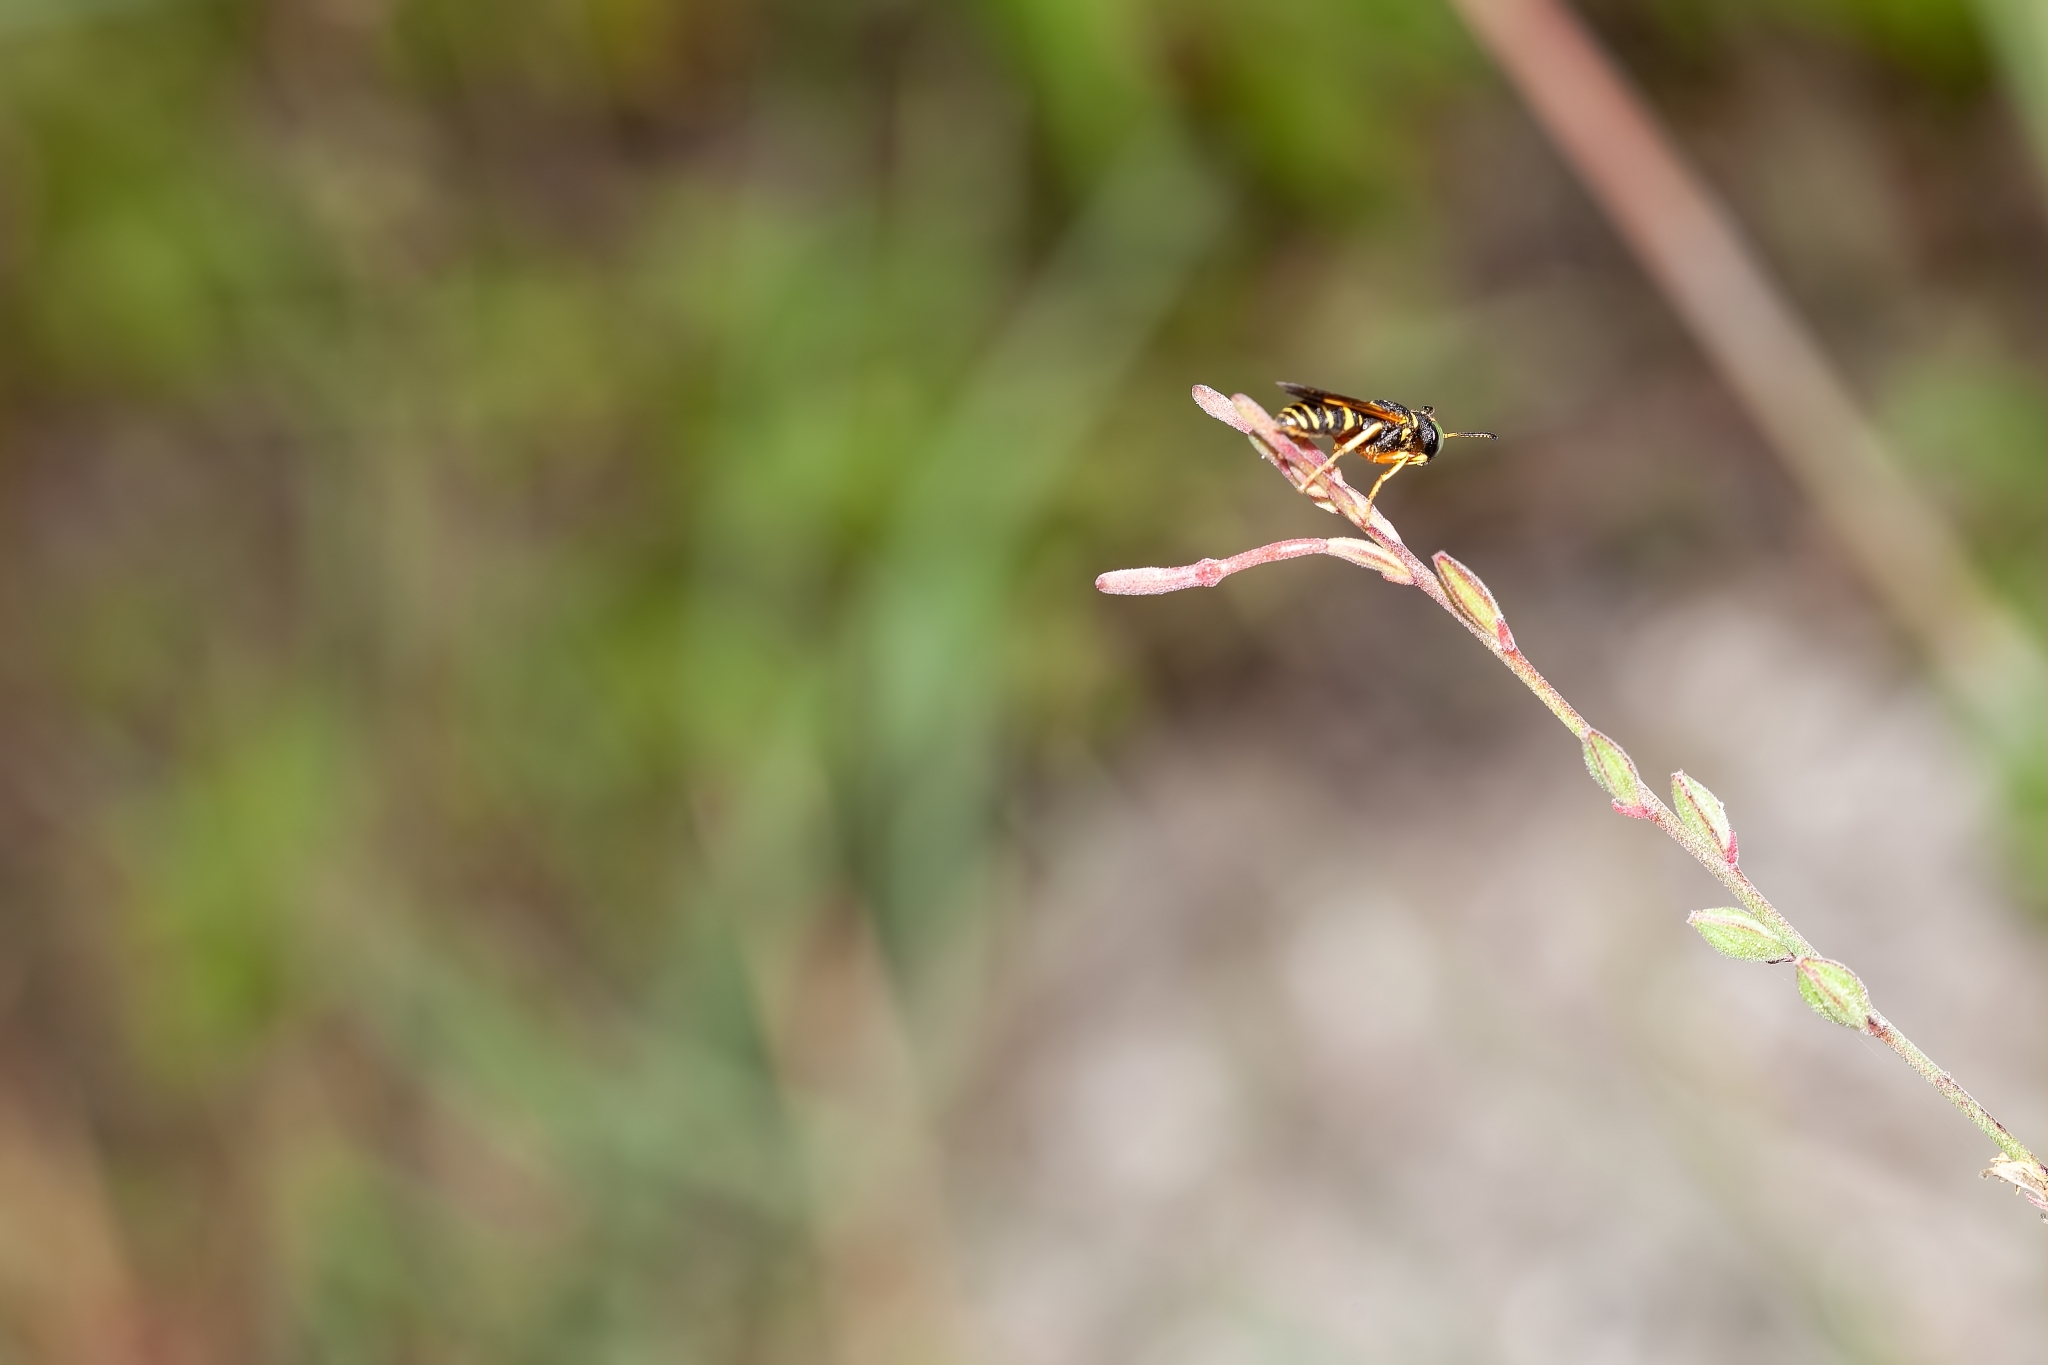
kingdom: Animalia
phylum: Arthropoda
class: Insecta
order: Hymenoptera
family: Crabronidae
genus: Philanthus
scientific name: Philanthus ventilabris
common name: Bee-killer wasp
